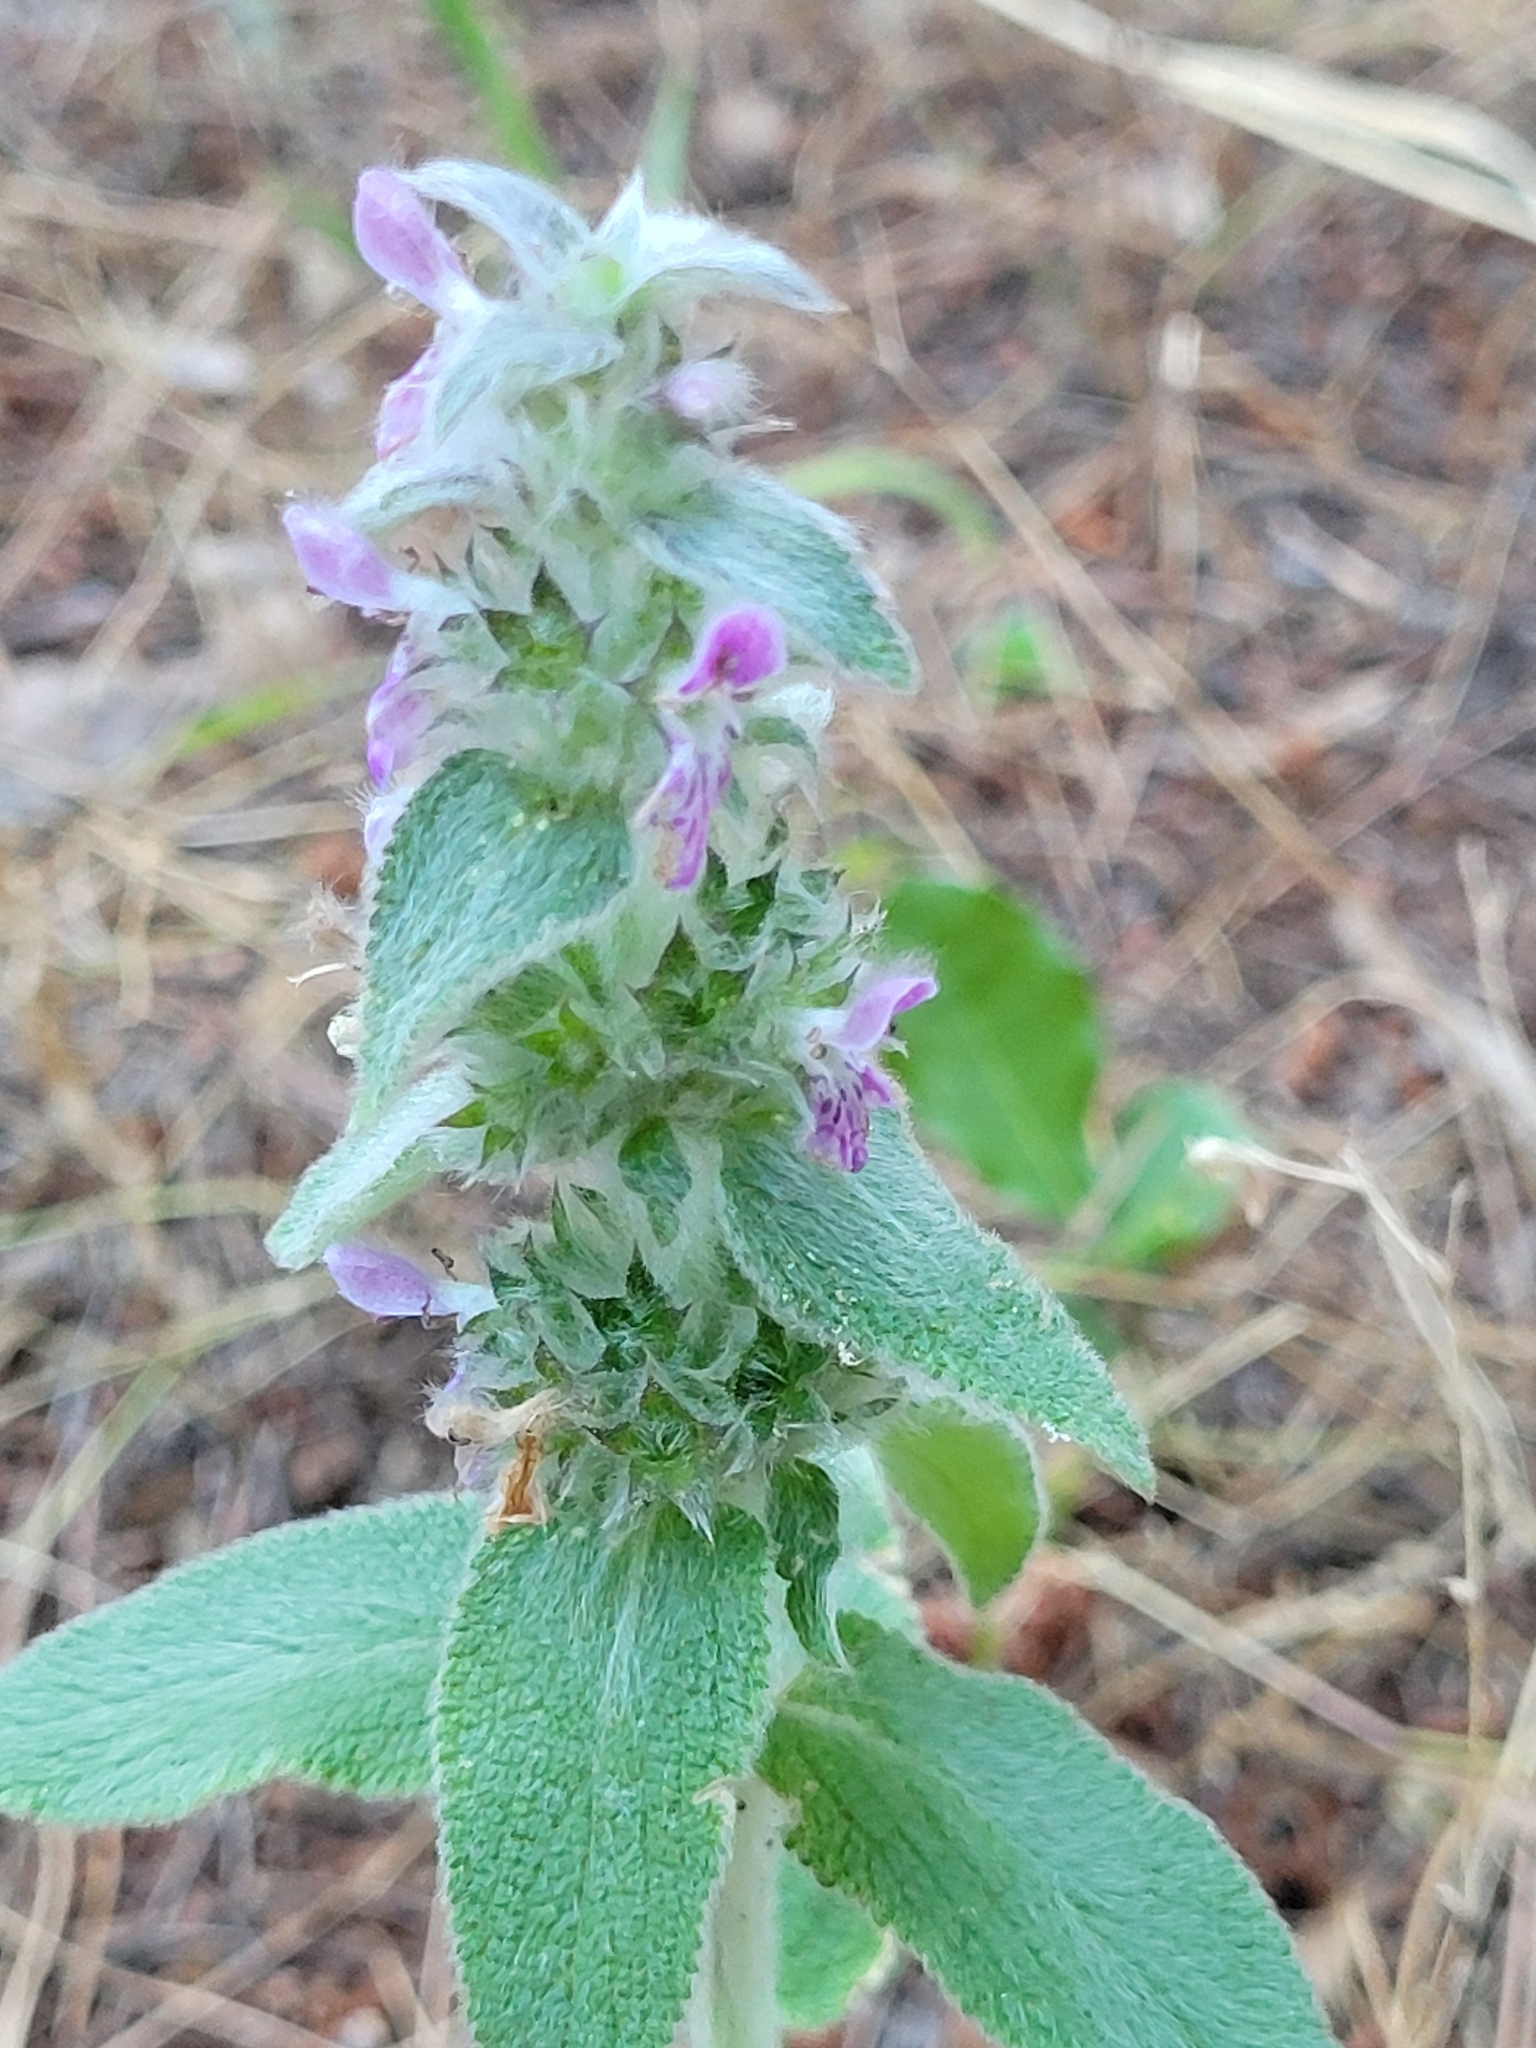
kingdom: Plantae
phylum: Tracheophyta
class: Magnoliopsida
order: Lamiales
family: Lamiaceae
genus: Stachys
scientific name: Stachys cretica
